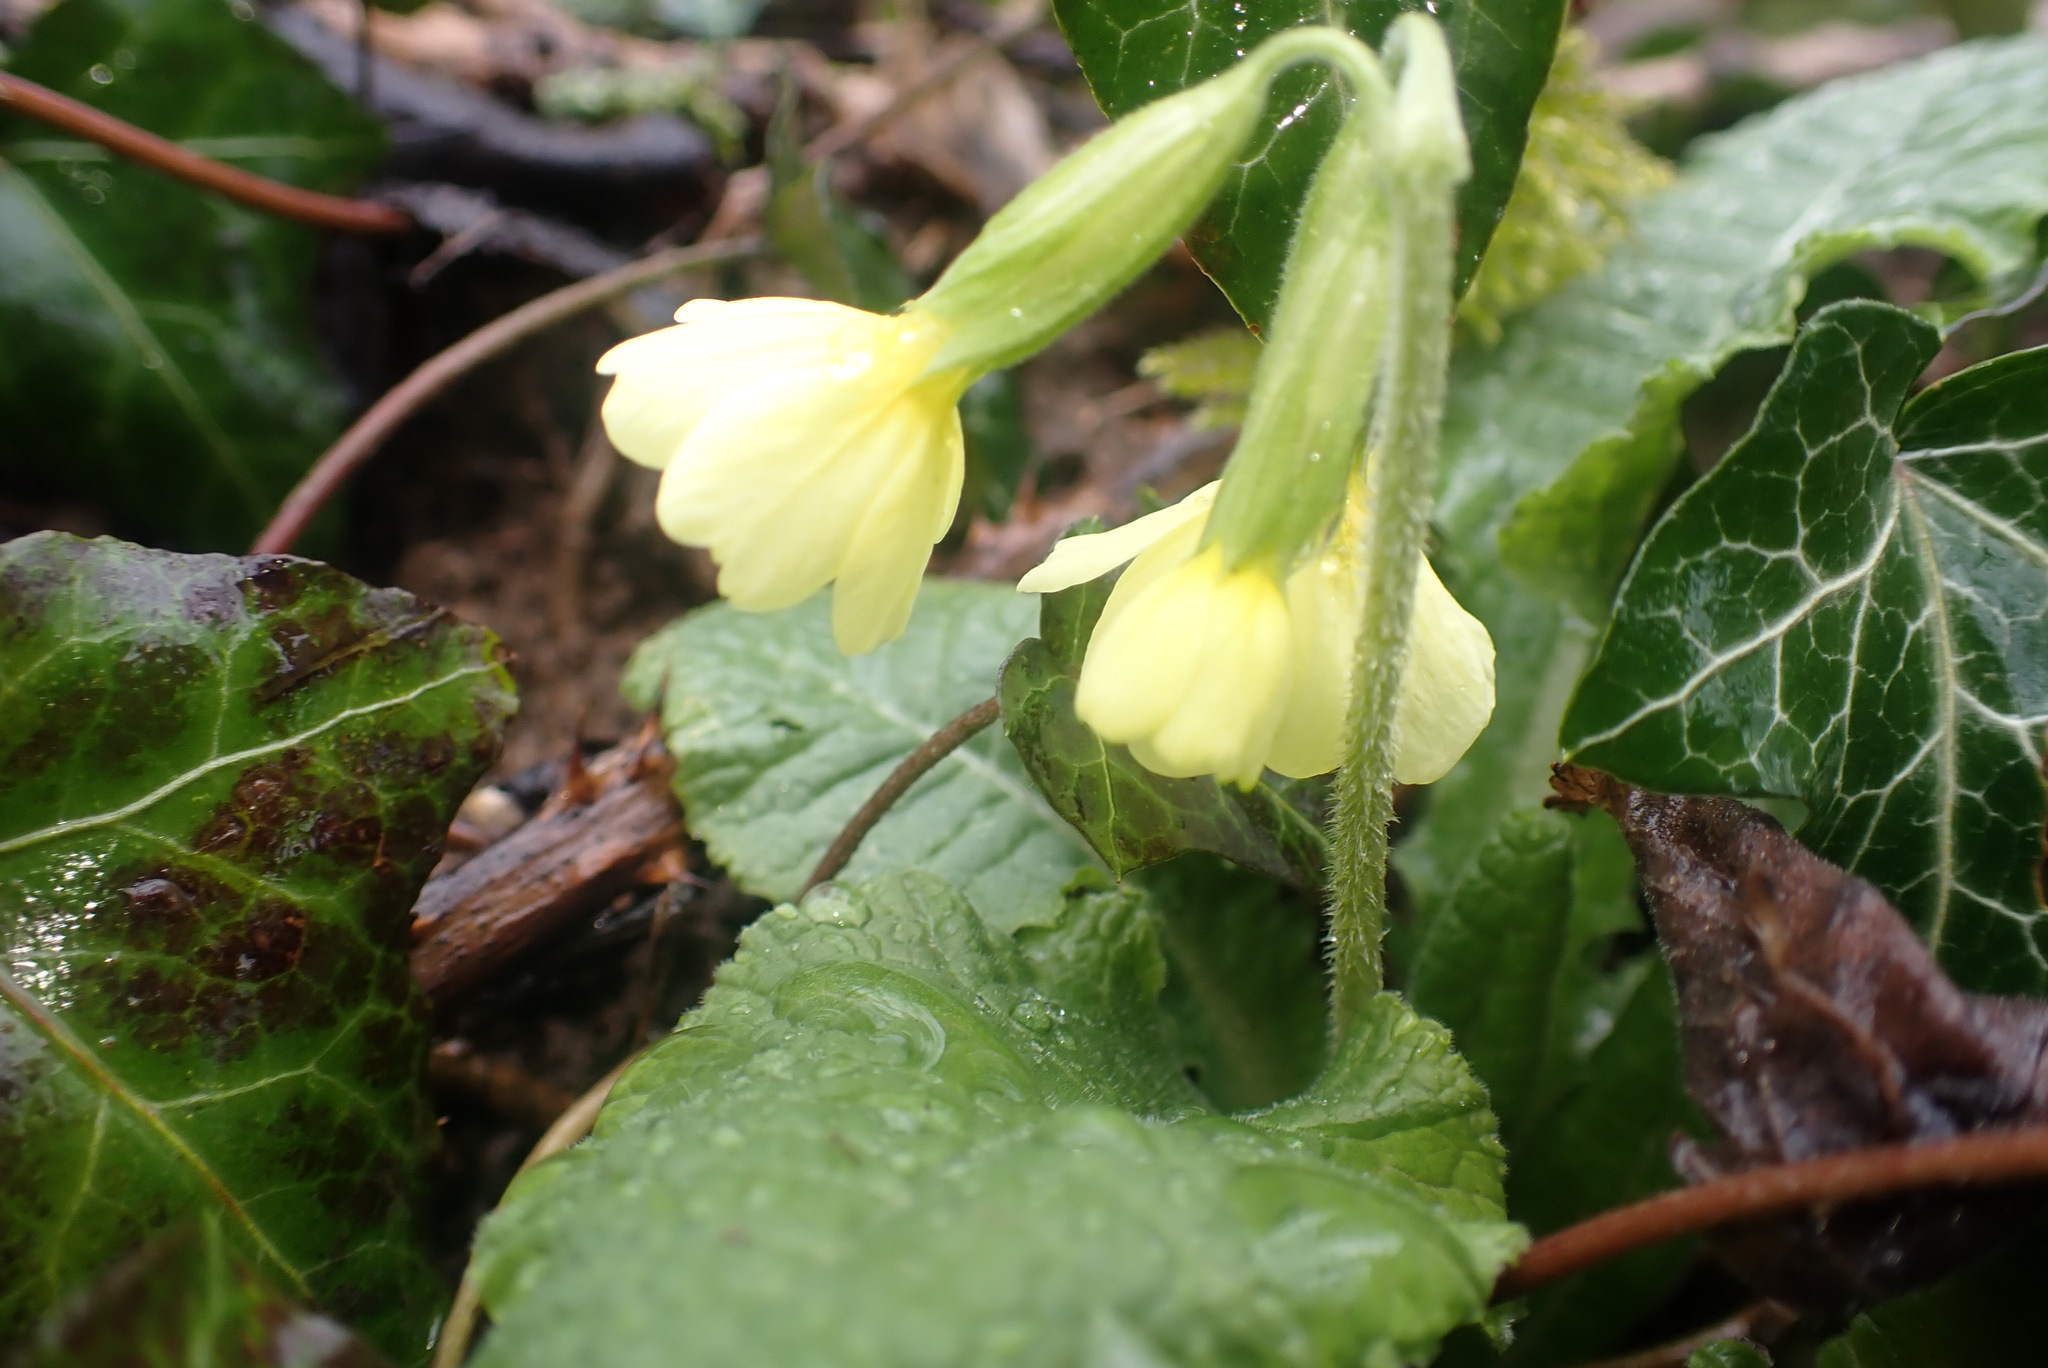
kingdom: Plantae
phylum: Tracheophyta
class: Magnoliopsida
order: Ericales
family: Primulaceae
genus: Primula
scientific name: Primula elatior
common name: Oxlip
